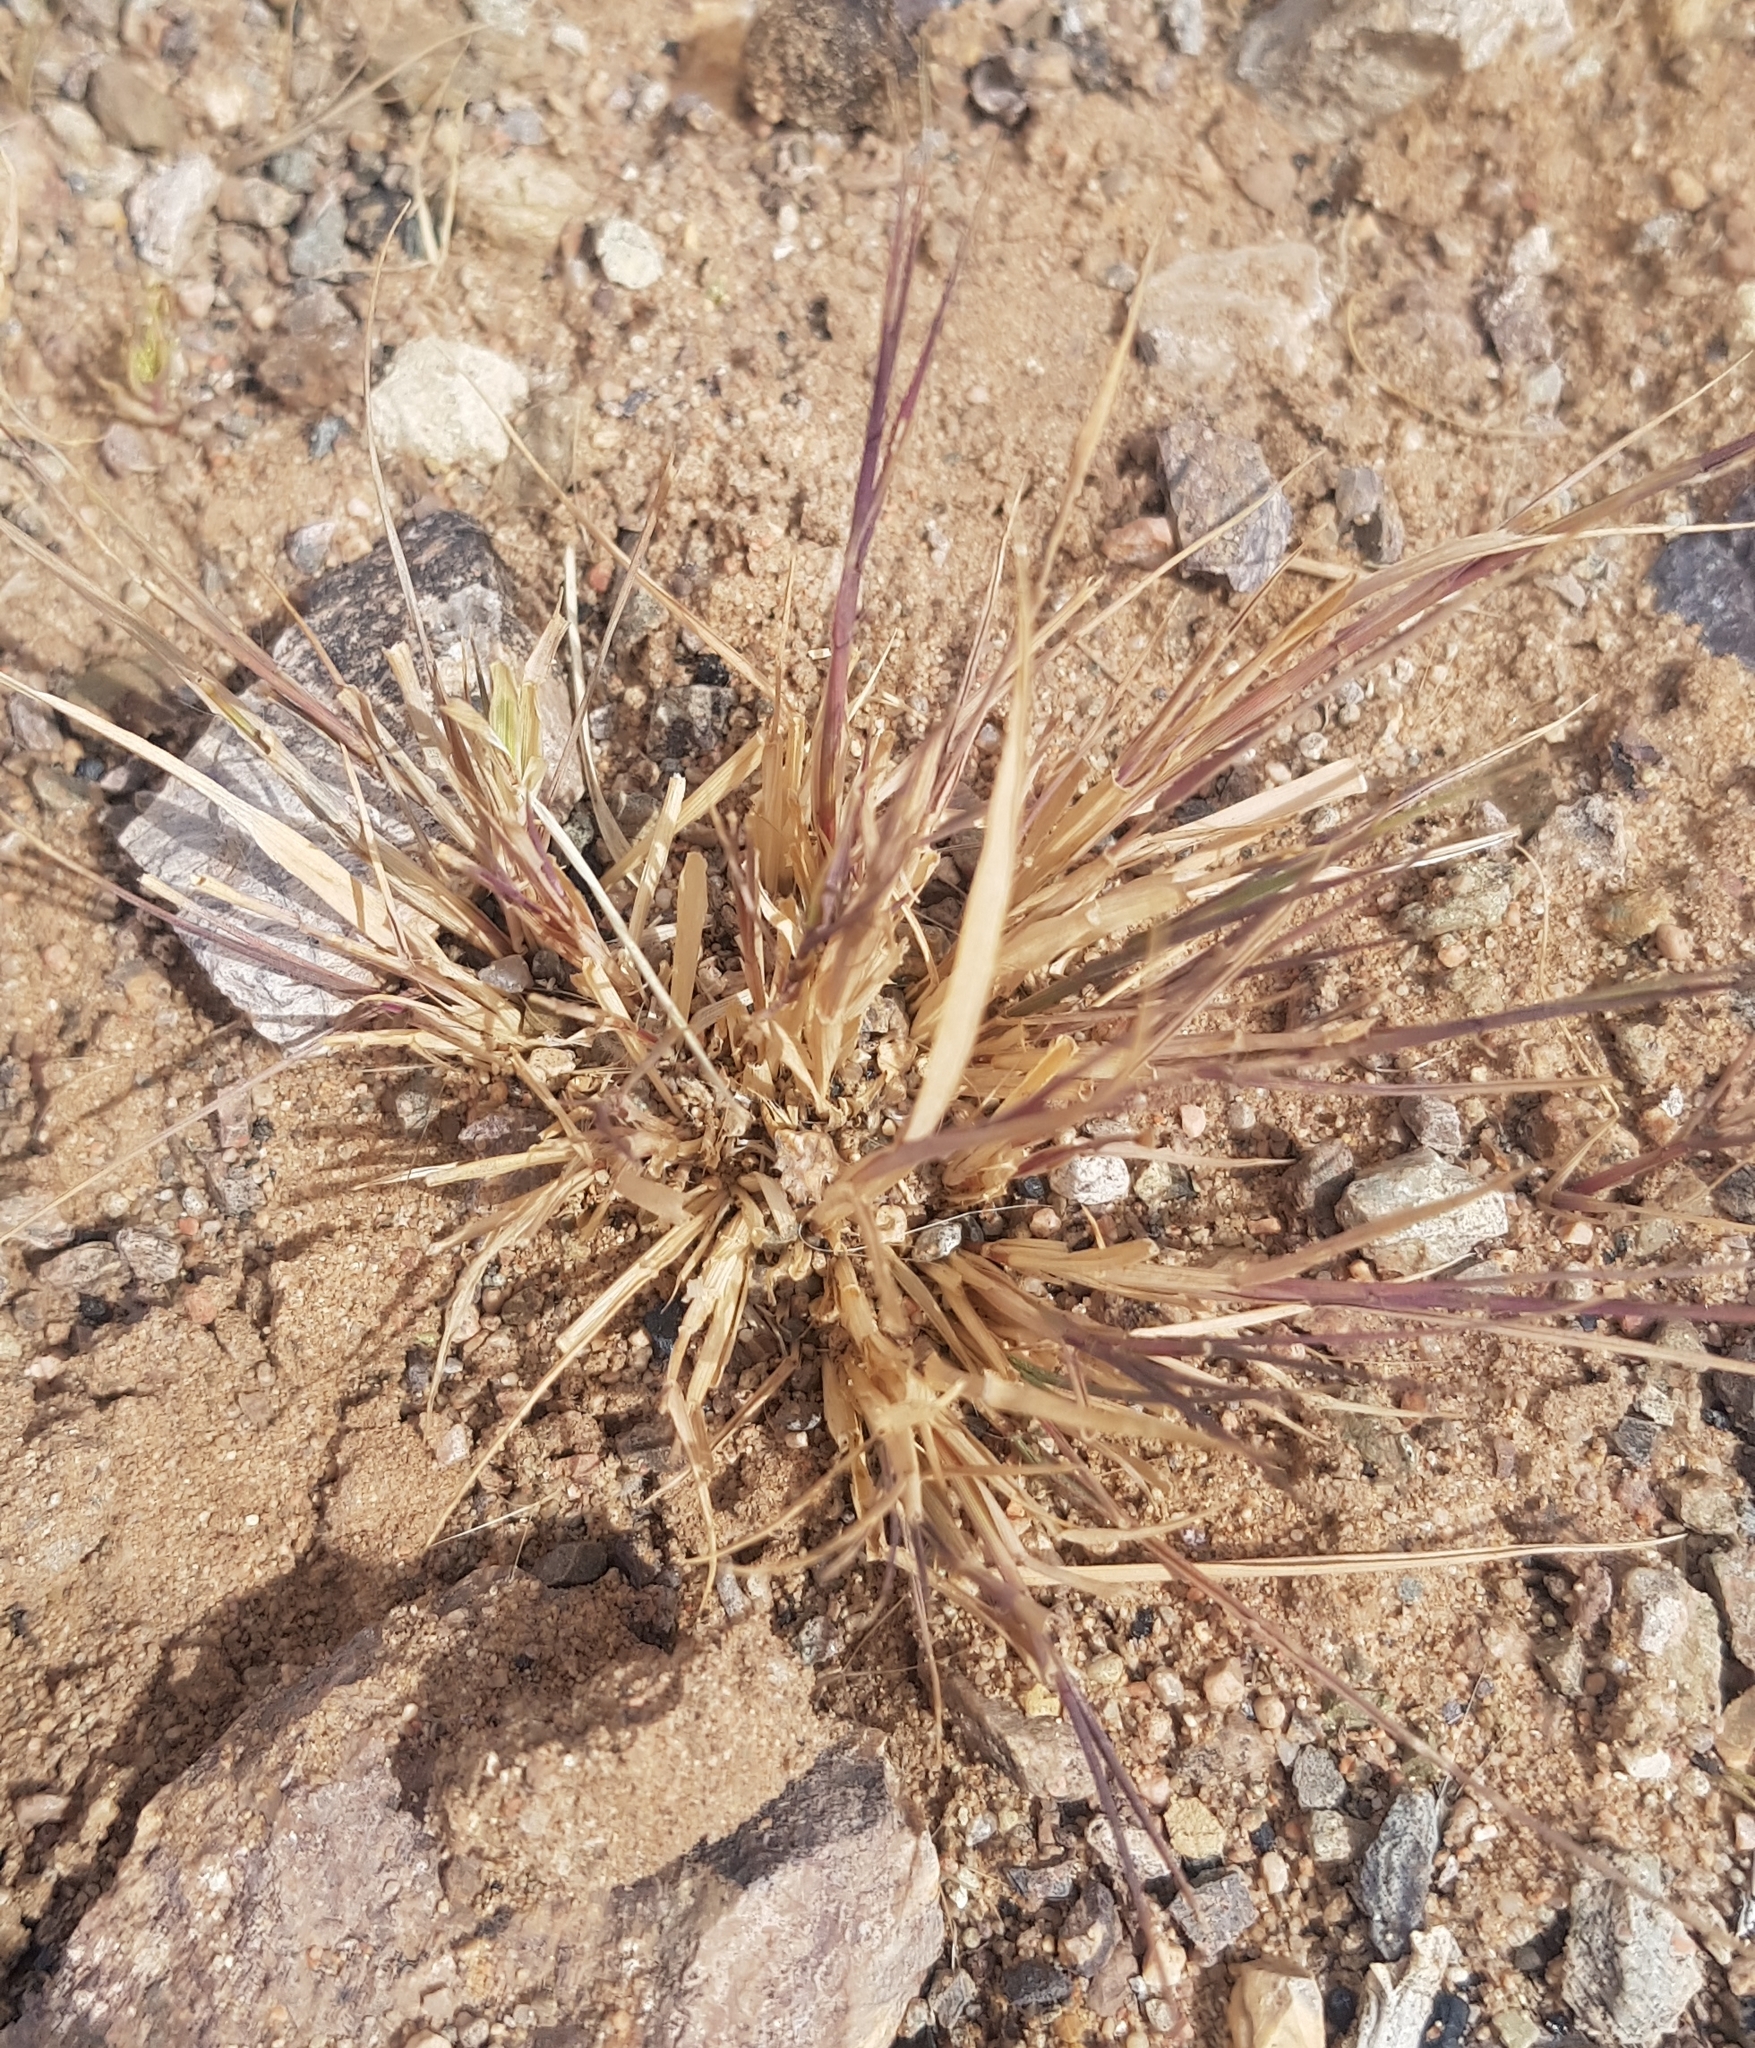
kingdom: Plantae
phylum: Tracheophyta
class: Liliopsida
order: Poales
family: Poaceae
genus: Cleistogenes
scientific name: Cleistogenes squarrosa
